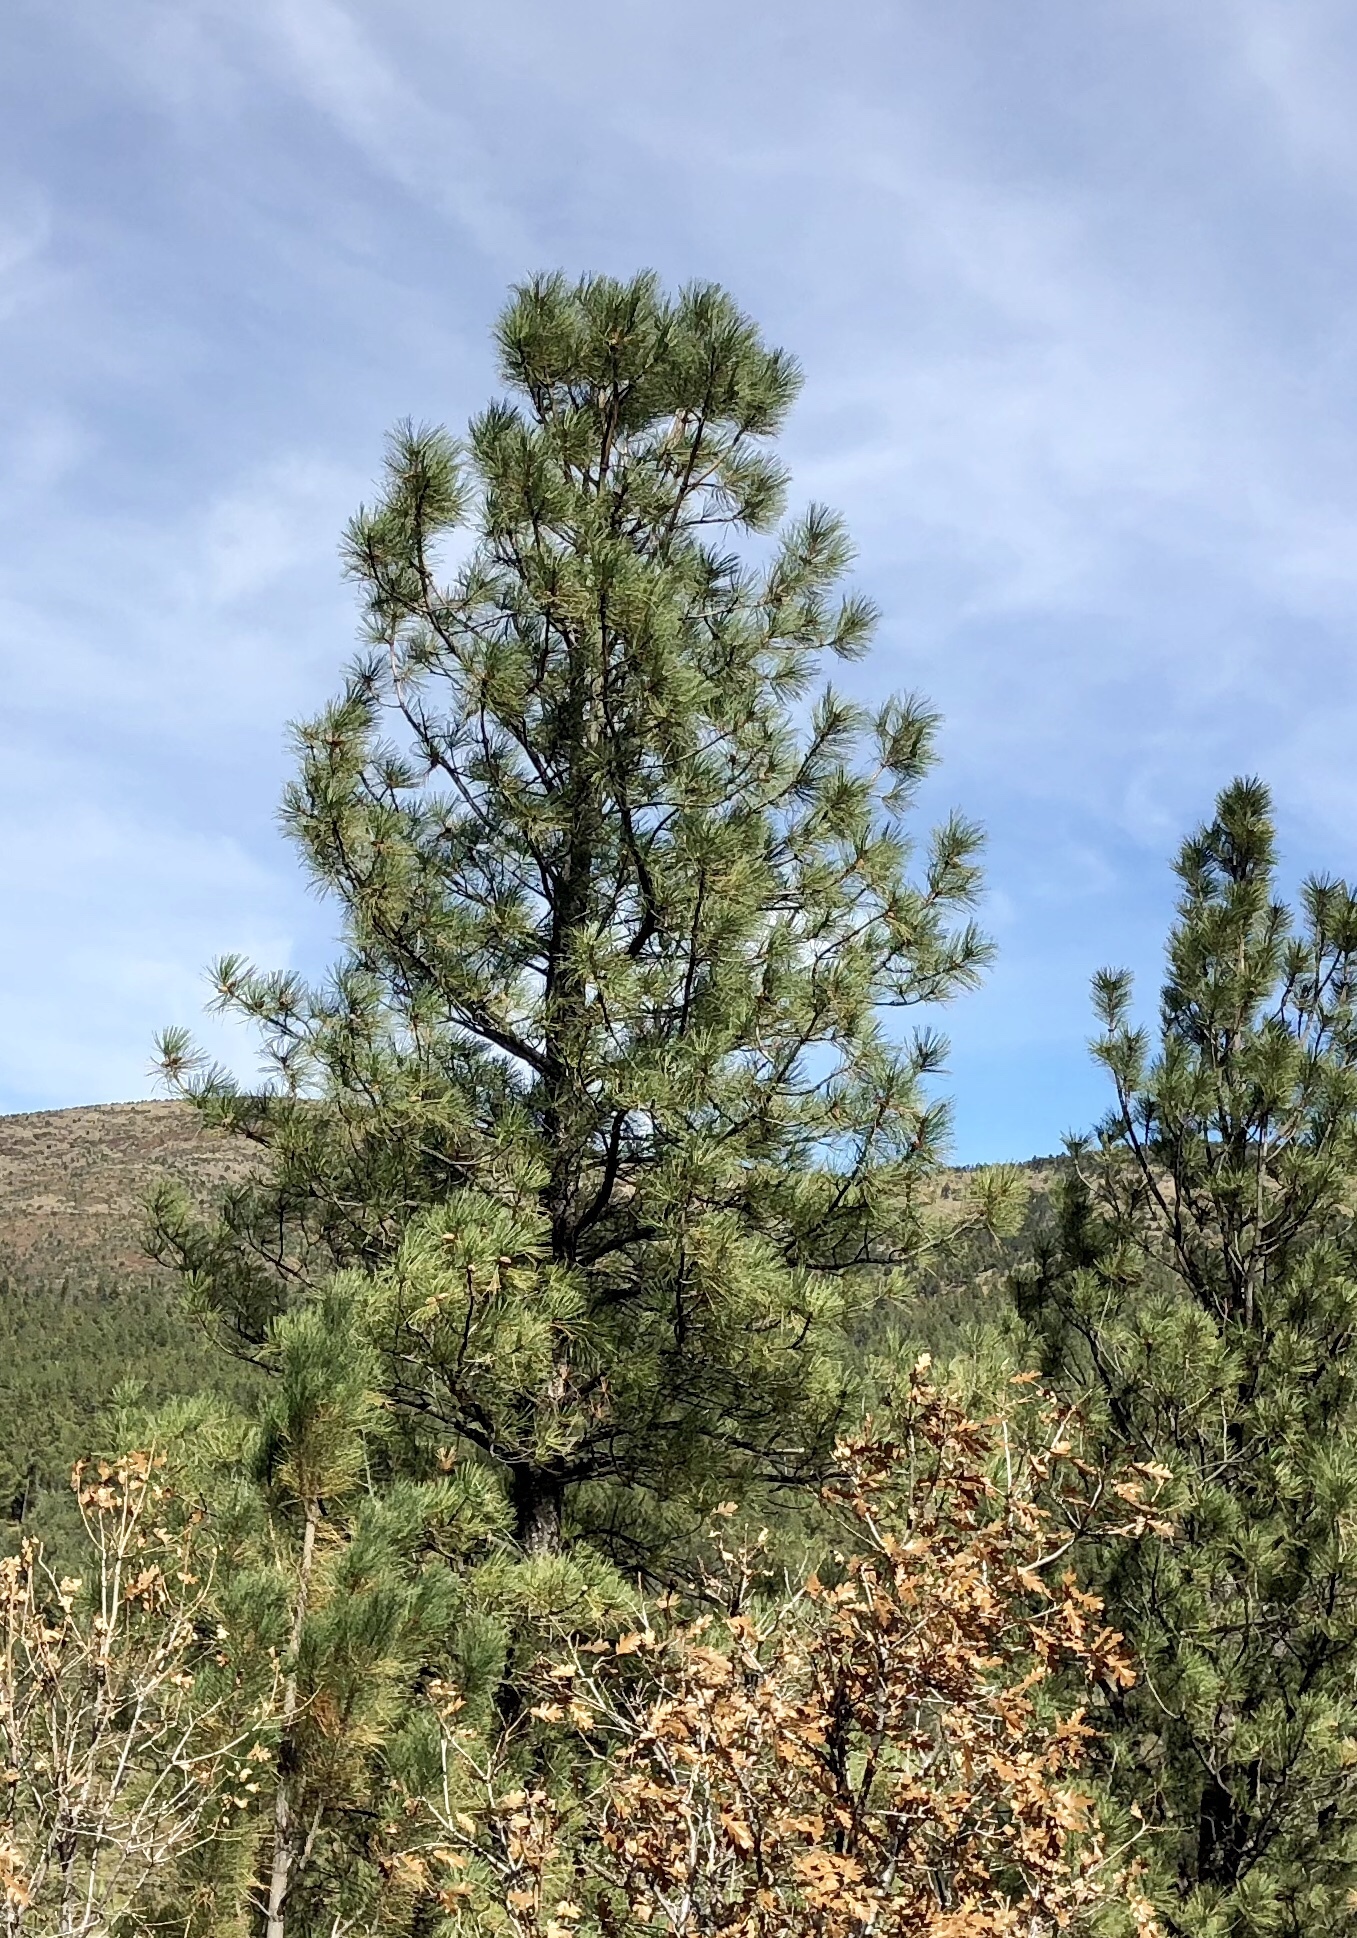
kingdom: Plantae
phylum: Tracheophyta
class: Pinopsida
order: Pinales
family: Pinaceae
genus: Pinus
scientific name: Pinus ponderosa
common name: Western yellow-pine
